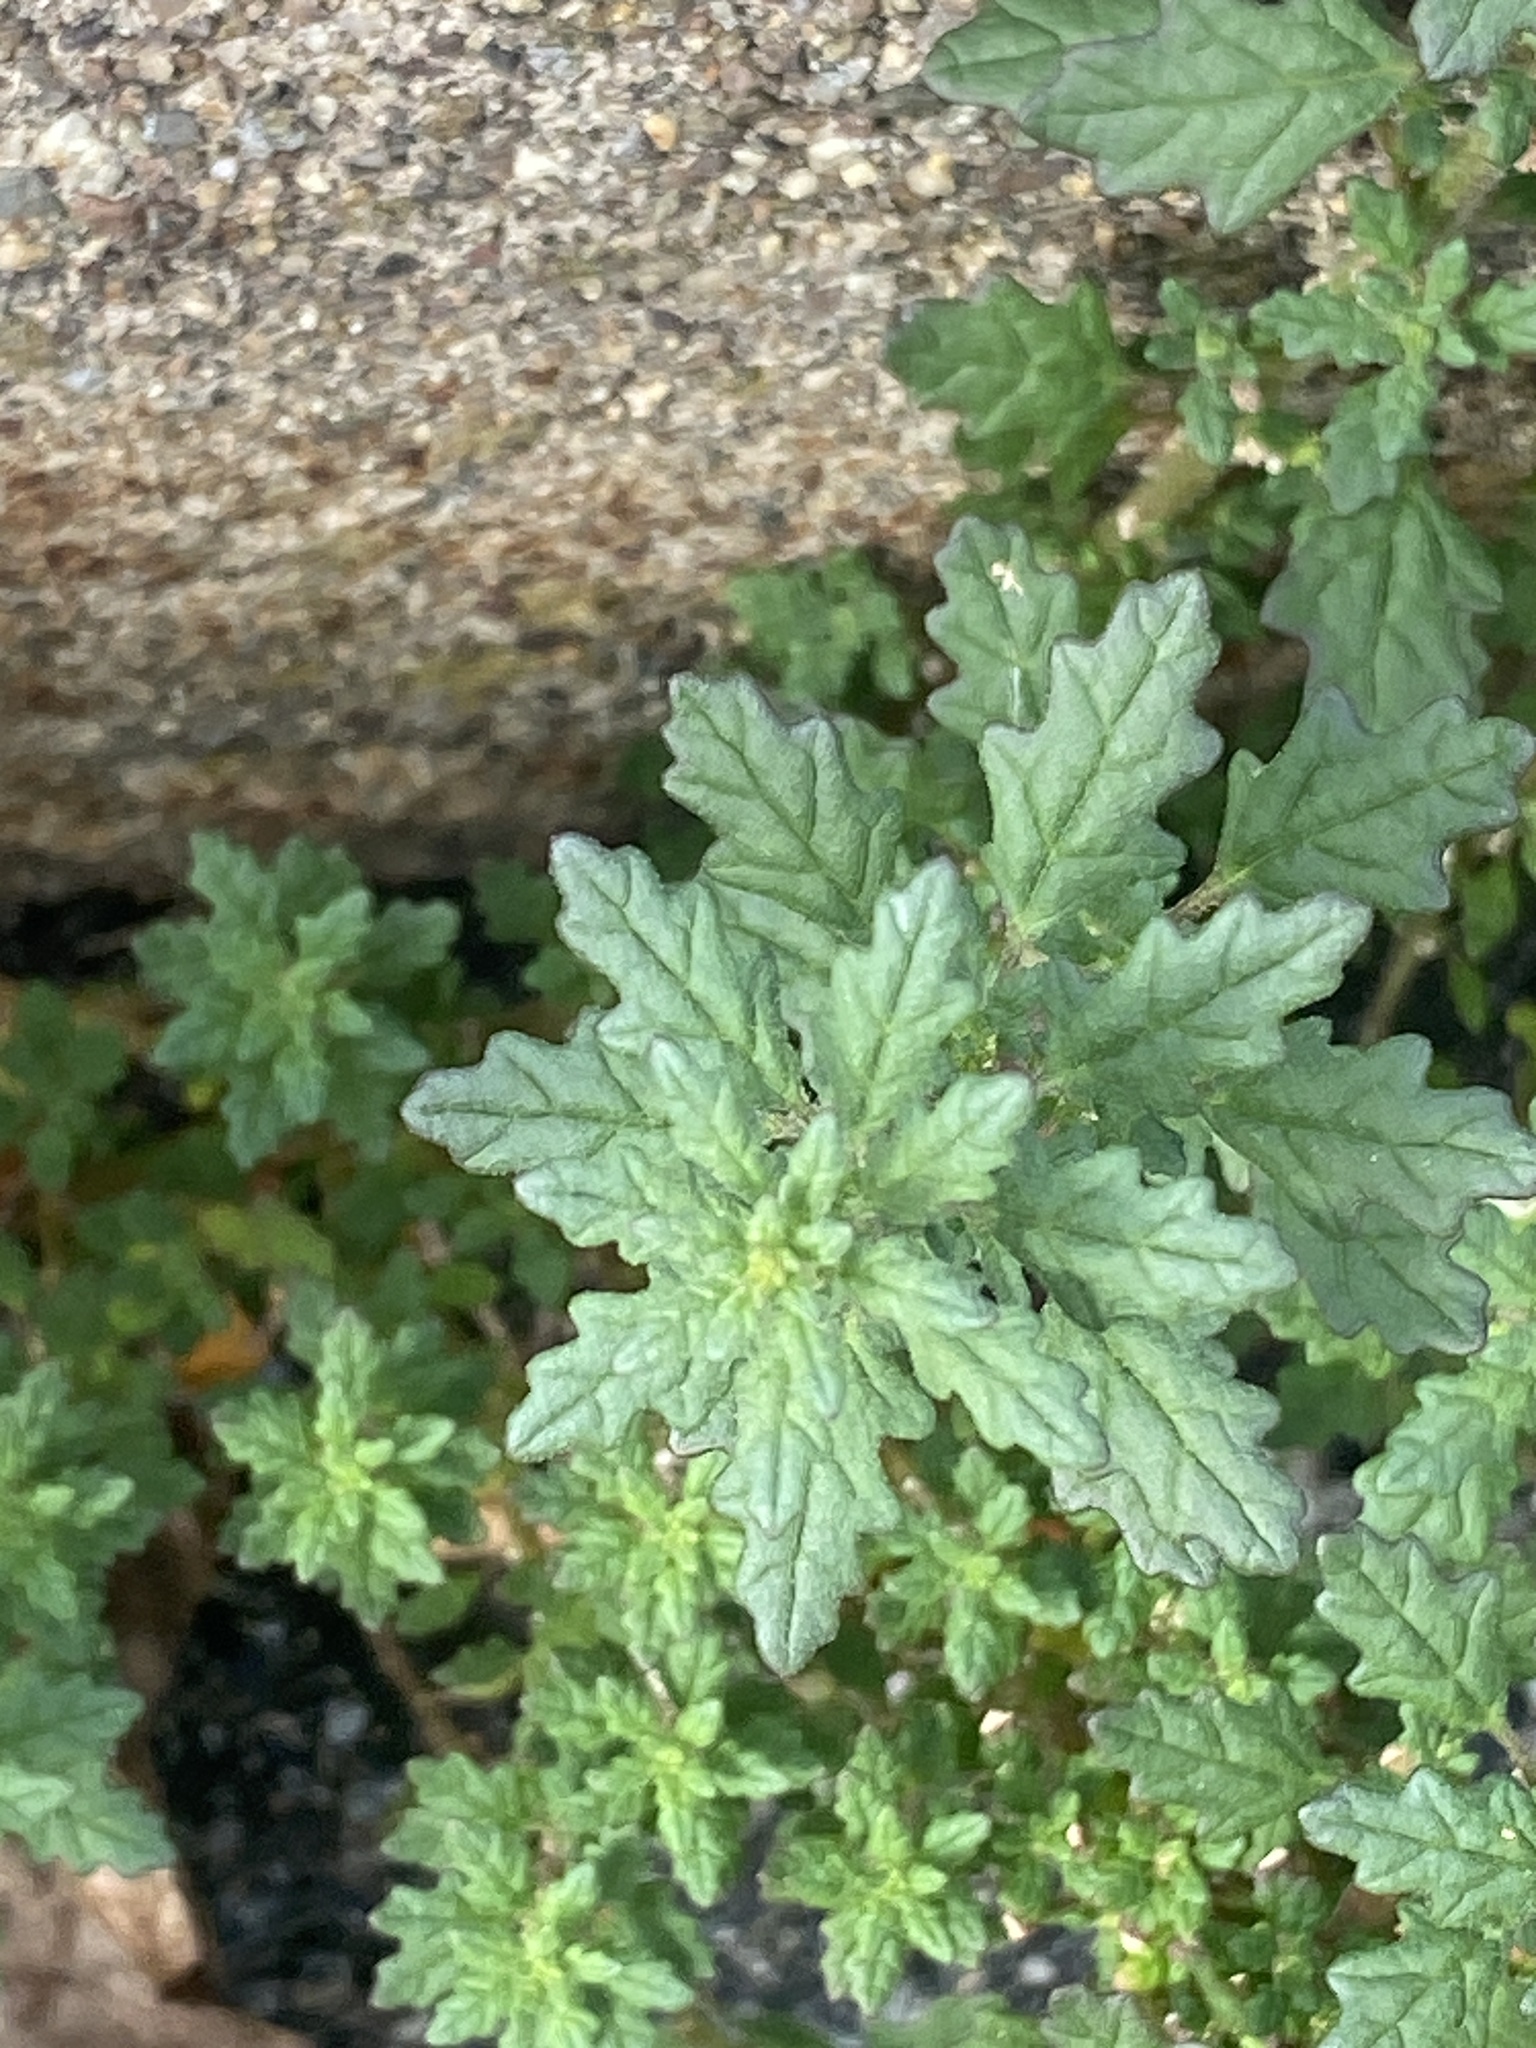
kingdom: Plantae
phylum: Tracheophyta
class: Magnoliopsida
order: Caryophyllales
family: Amaranthaceae
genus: Dysphania
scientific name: Dysphania pumilio
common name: Clammy goosefoot
